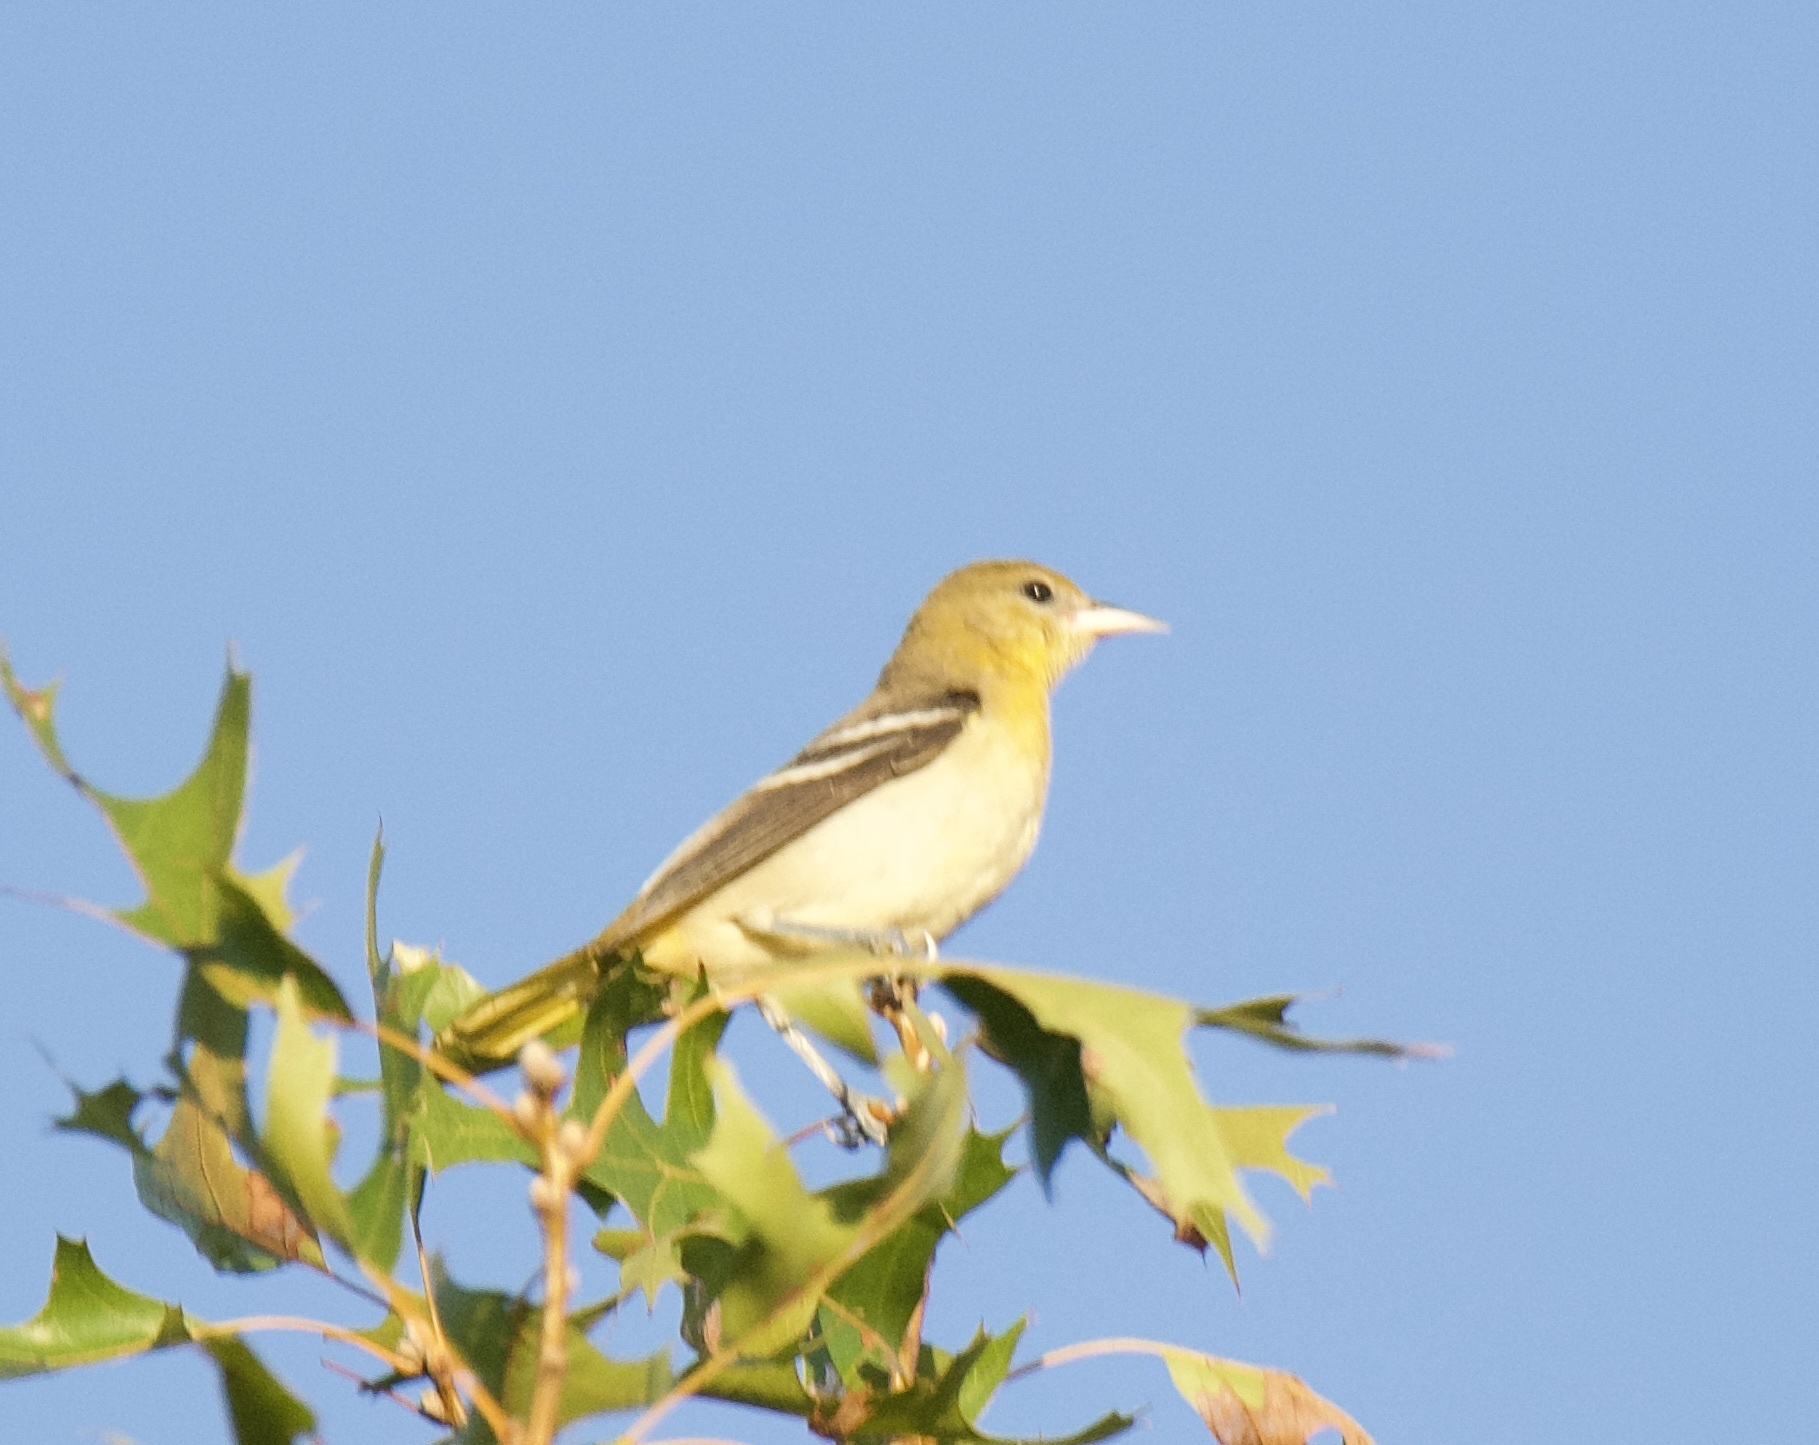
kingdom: Animalia
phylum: Chordata
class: Aves
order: Passeriformes
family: Icteridae
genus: Icterus
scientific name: Icterus galbula
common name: Baltimore oriole
